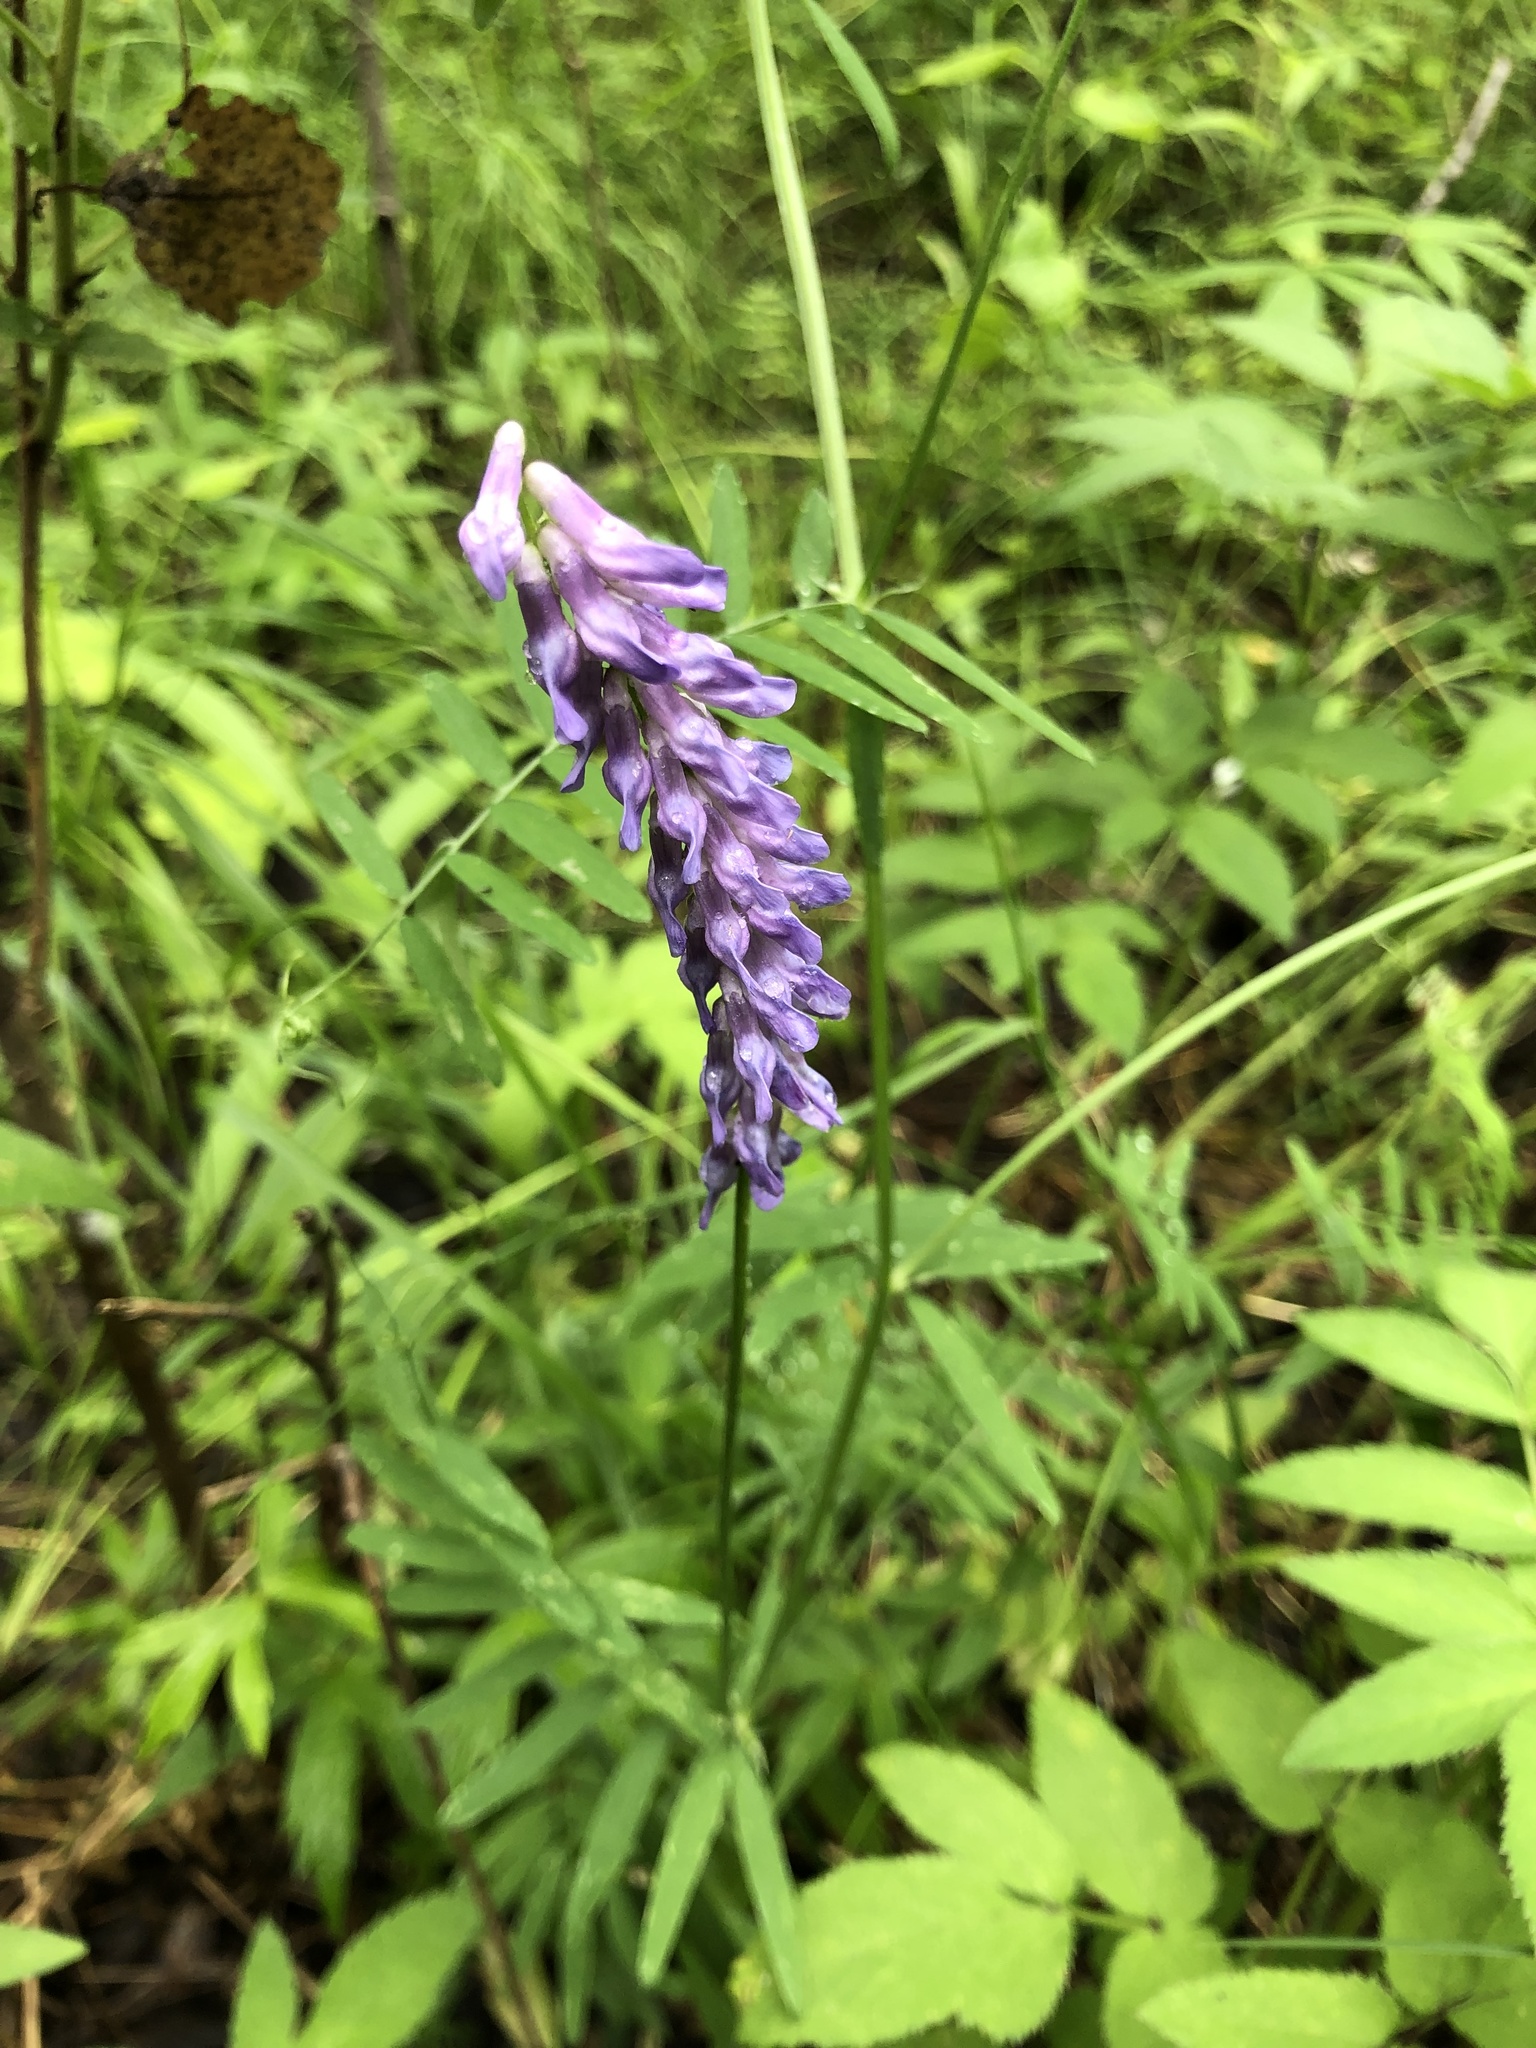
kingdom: Plantae
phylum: Tracheophyta
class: Magnoliopsida
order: Fabales
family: Fabaceae
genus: Vicia
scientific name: Vicia cracca
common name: Bird vetch
